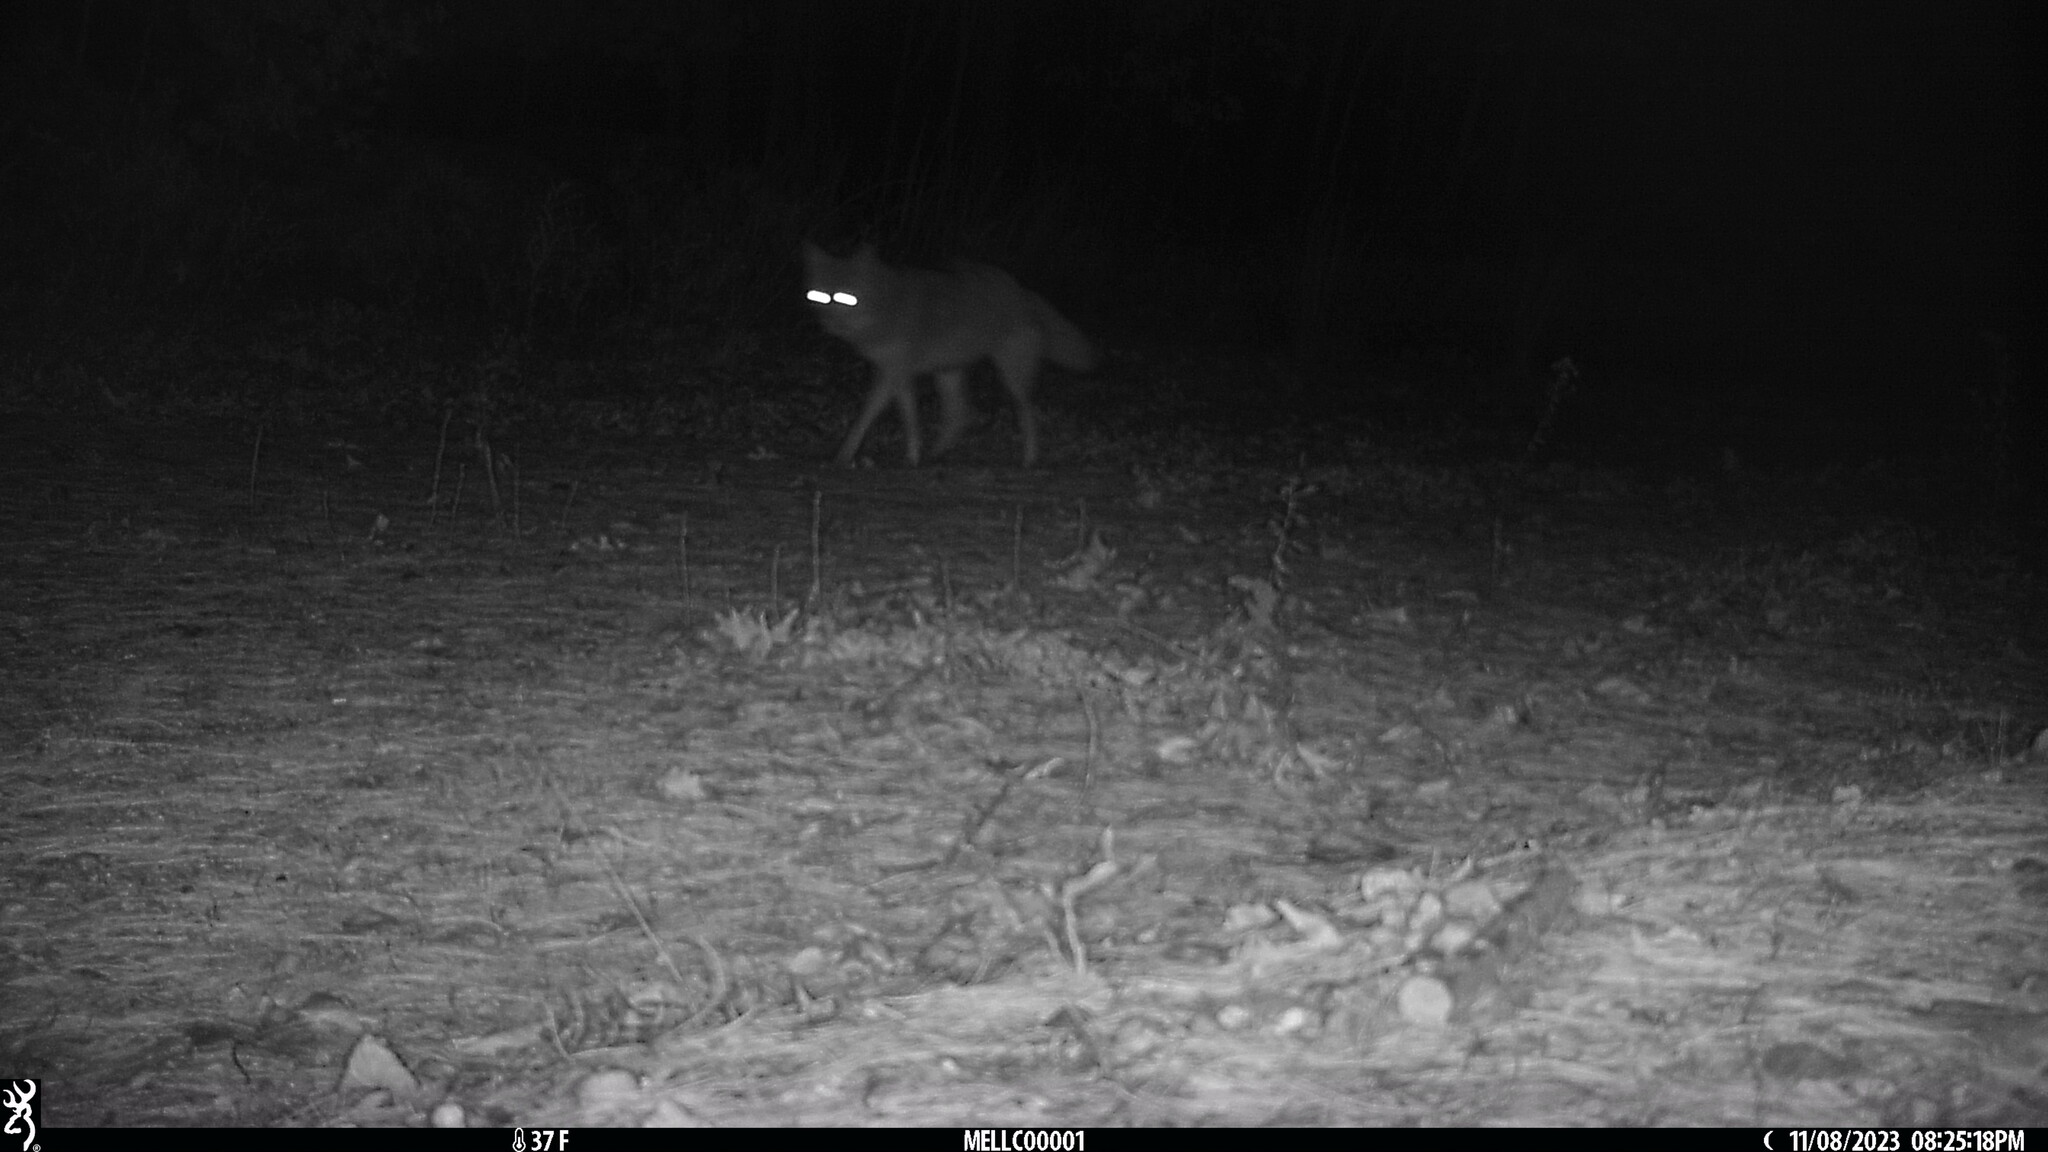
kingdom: Animalia
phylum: Chordata
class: Mammalia
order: Carnivora
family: Canidae
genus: Canis
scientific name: Canis latrans
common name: Coyote
